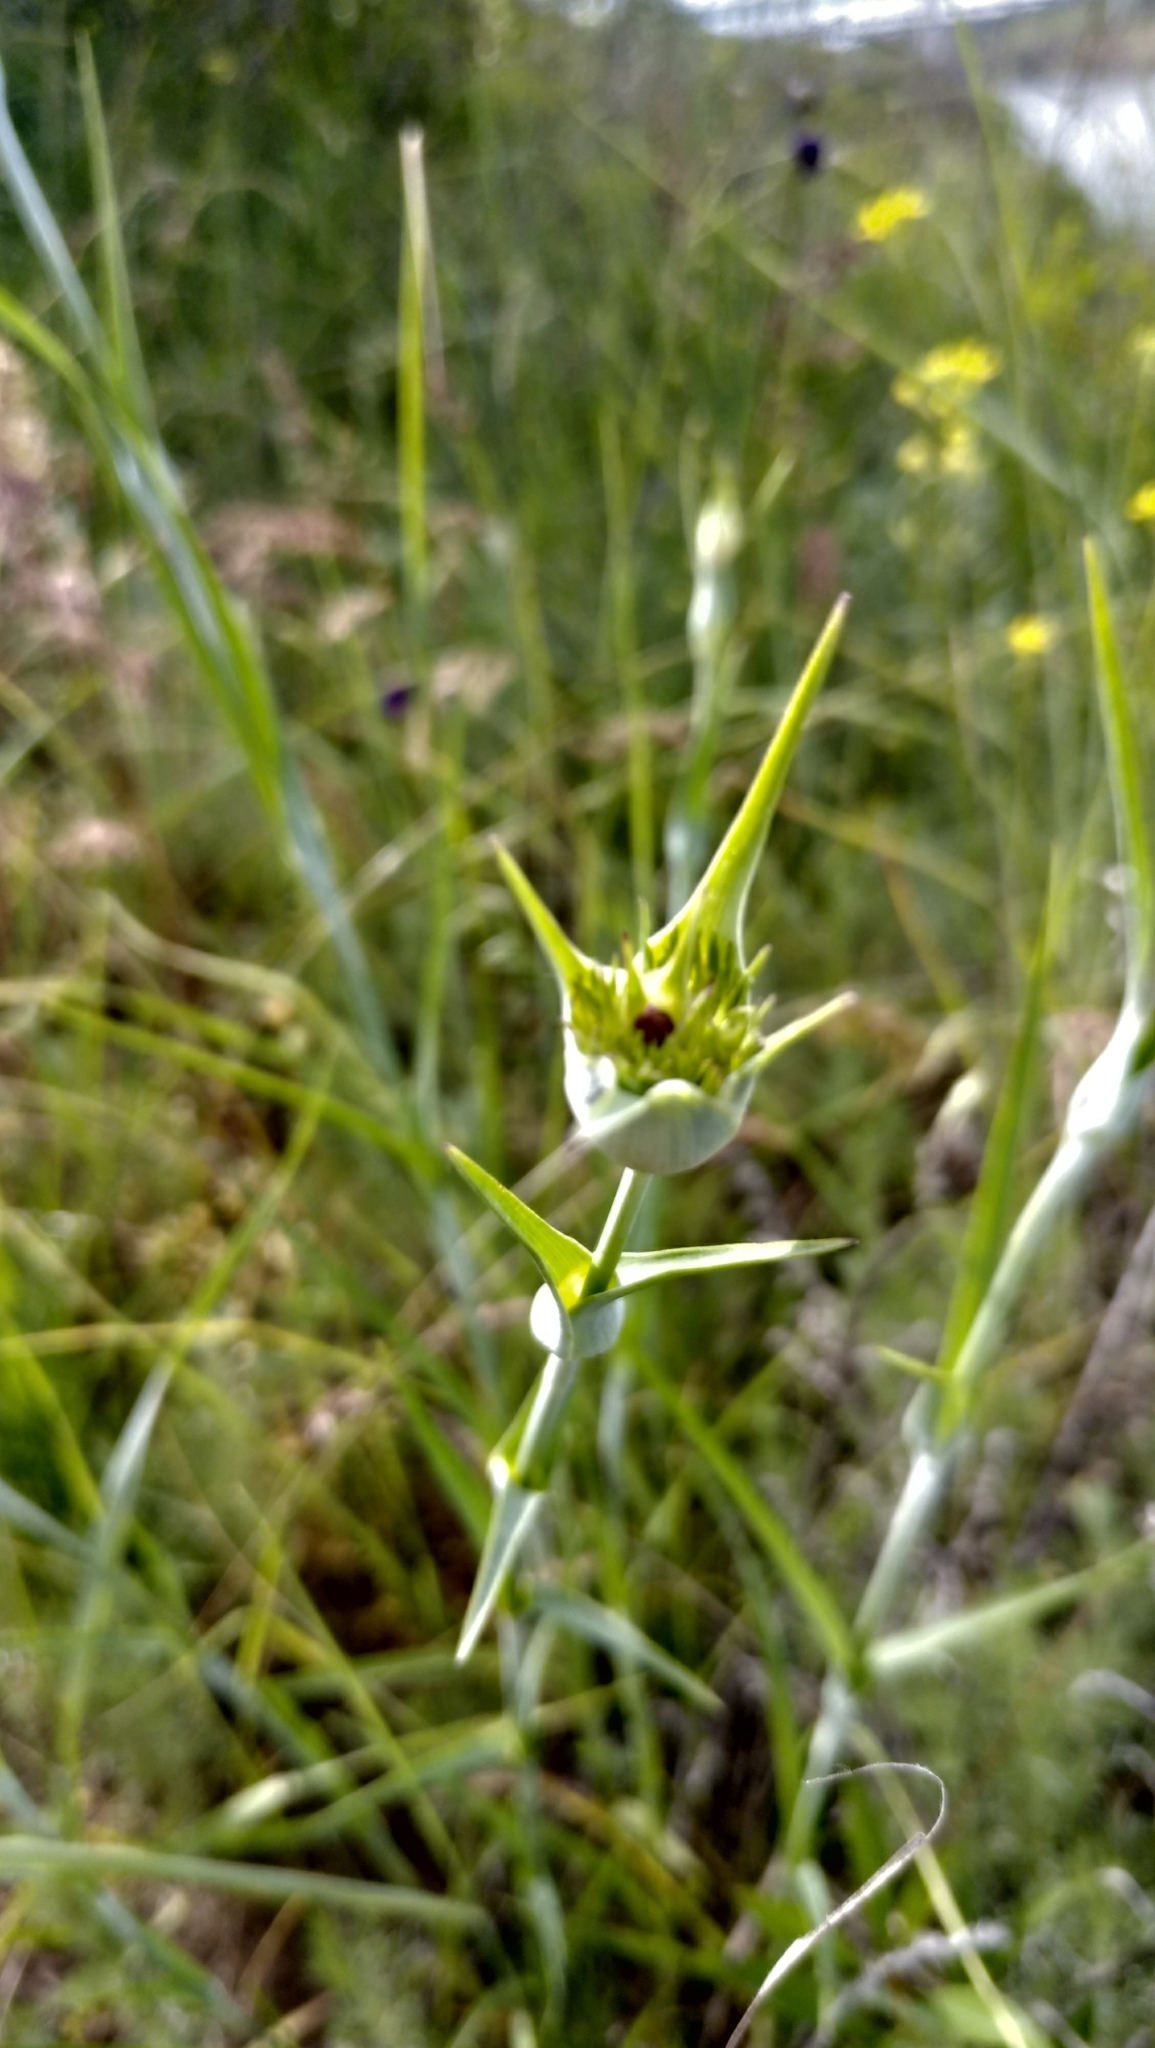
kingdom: Plantae
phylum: Tracheophyta
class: Magnoliopsida
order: Caryophyllales
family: Caryophyllaceae
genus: Dianthus
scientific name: Dianthus capitatus
